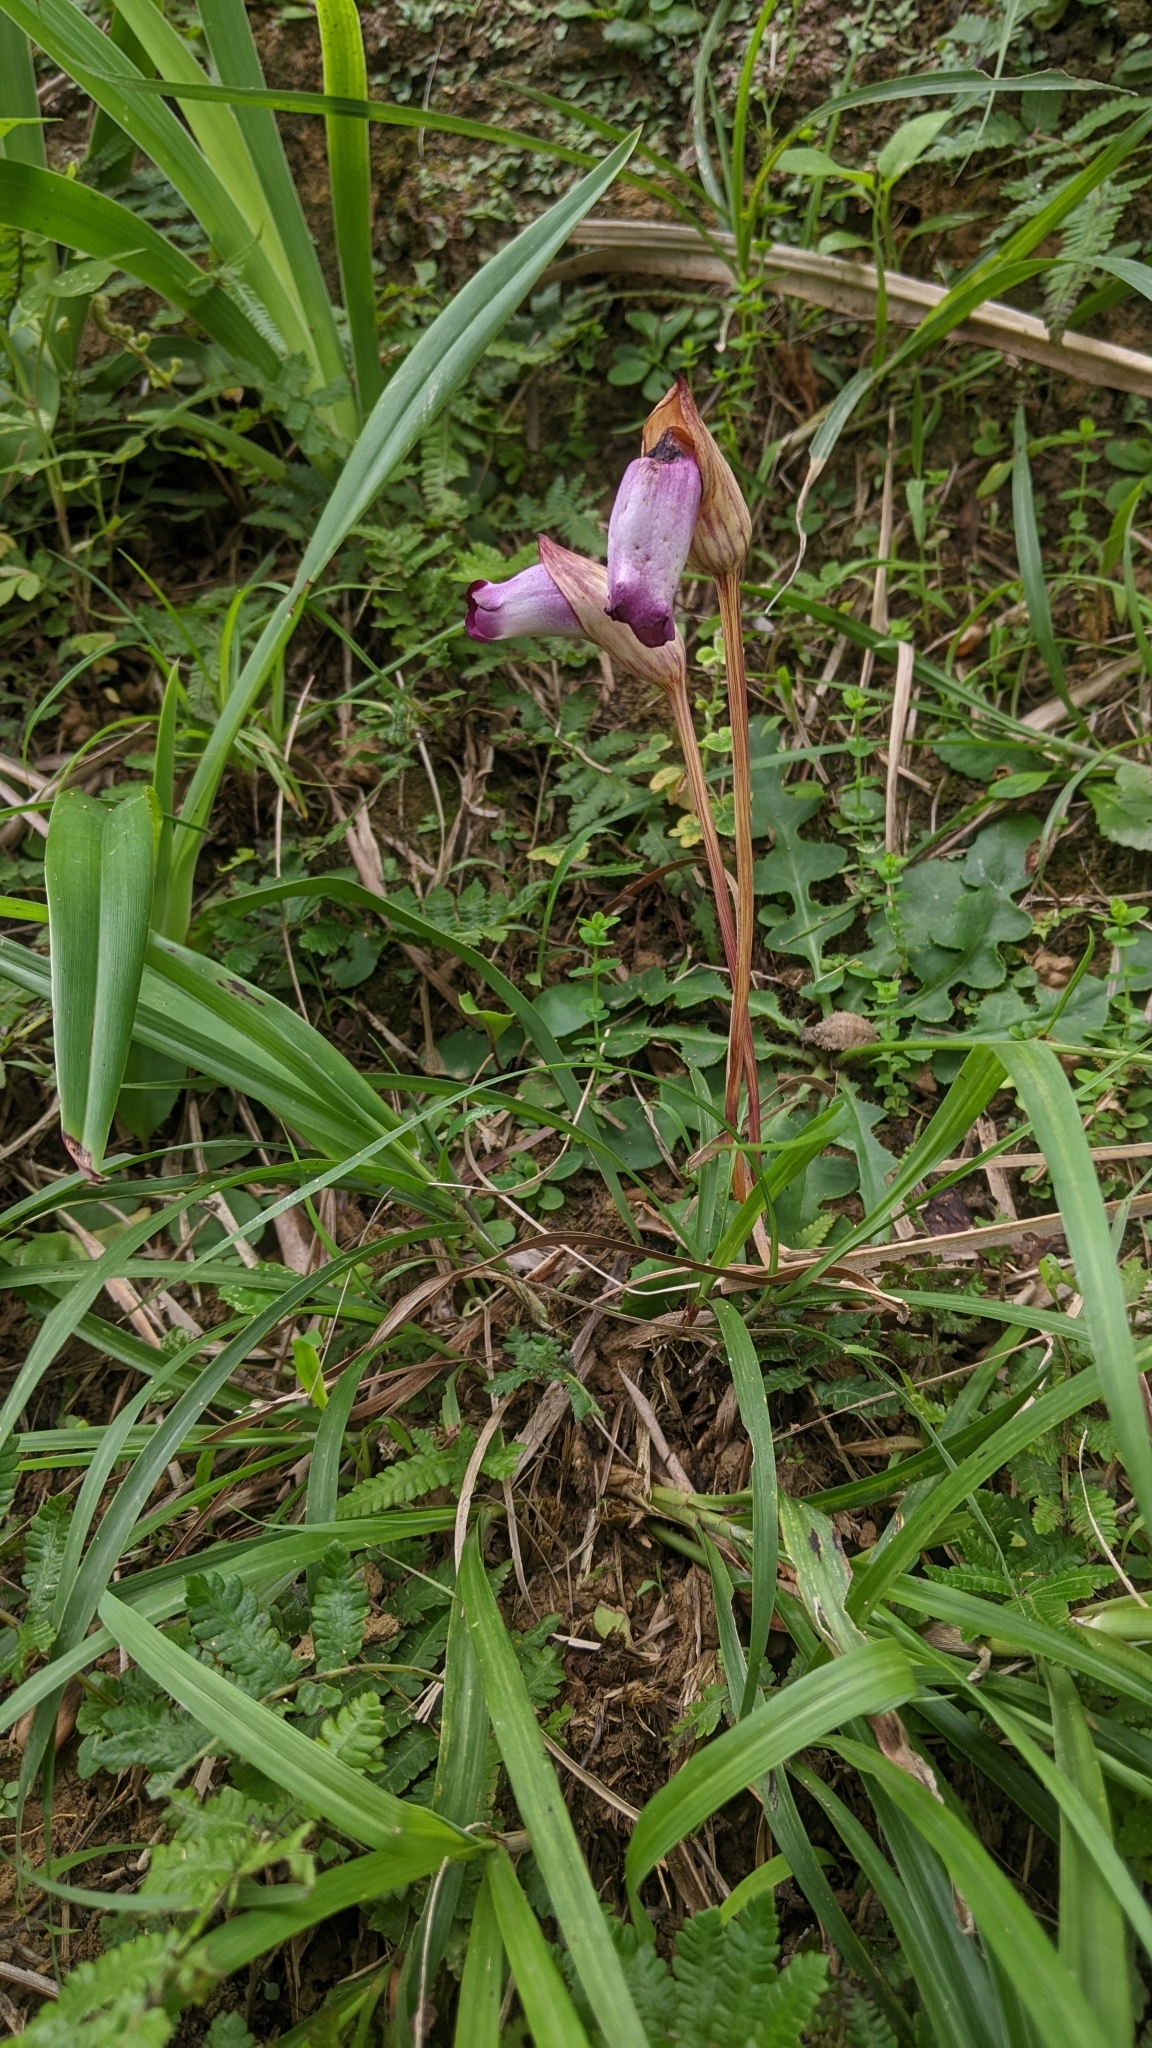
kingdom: Plantae
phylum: Tracheophyta
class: Magnoliopsida
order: Lamiales
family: Orobanchaceae
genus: Aeginetia
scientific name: Aeginetia indica
